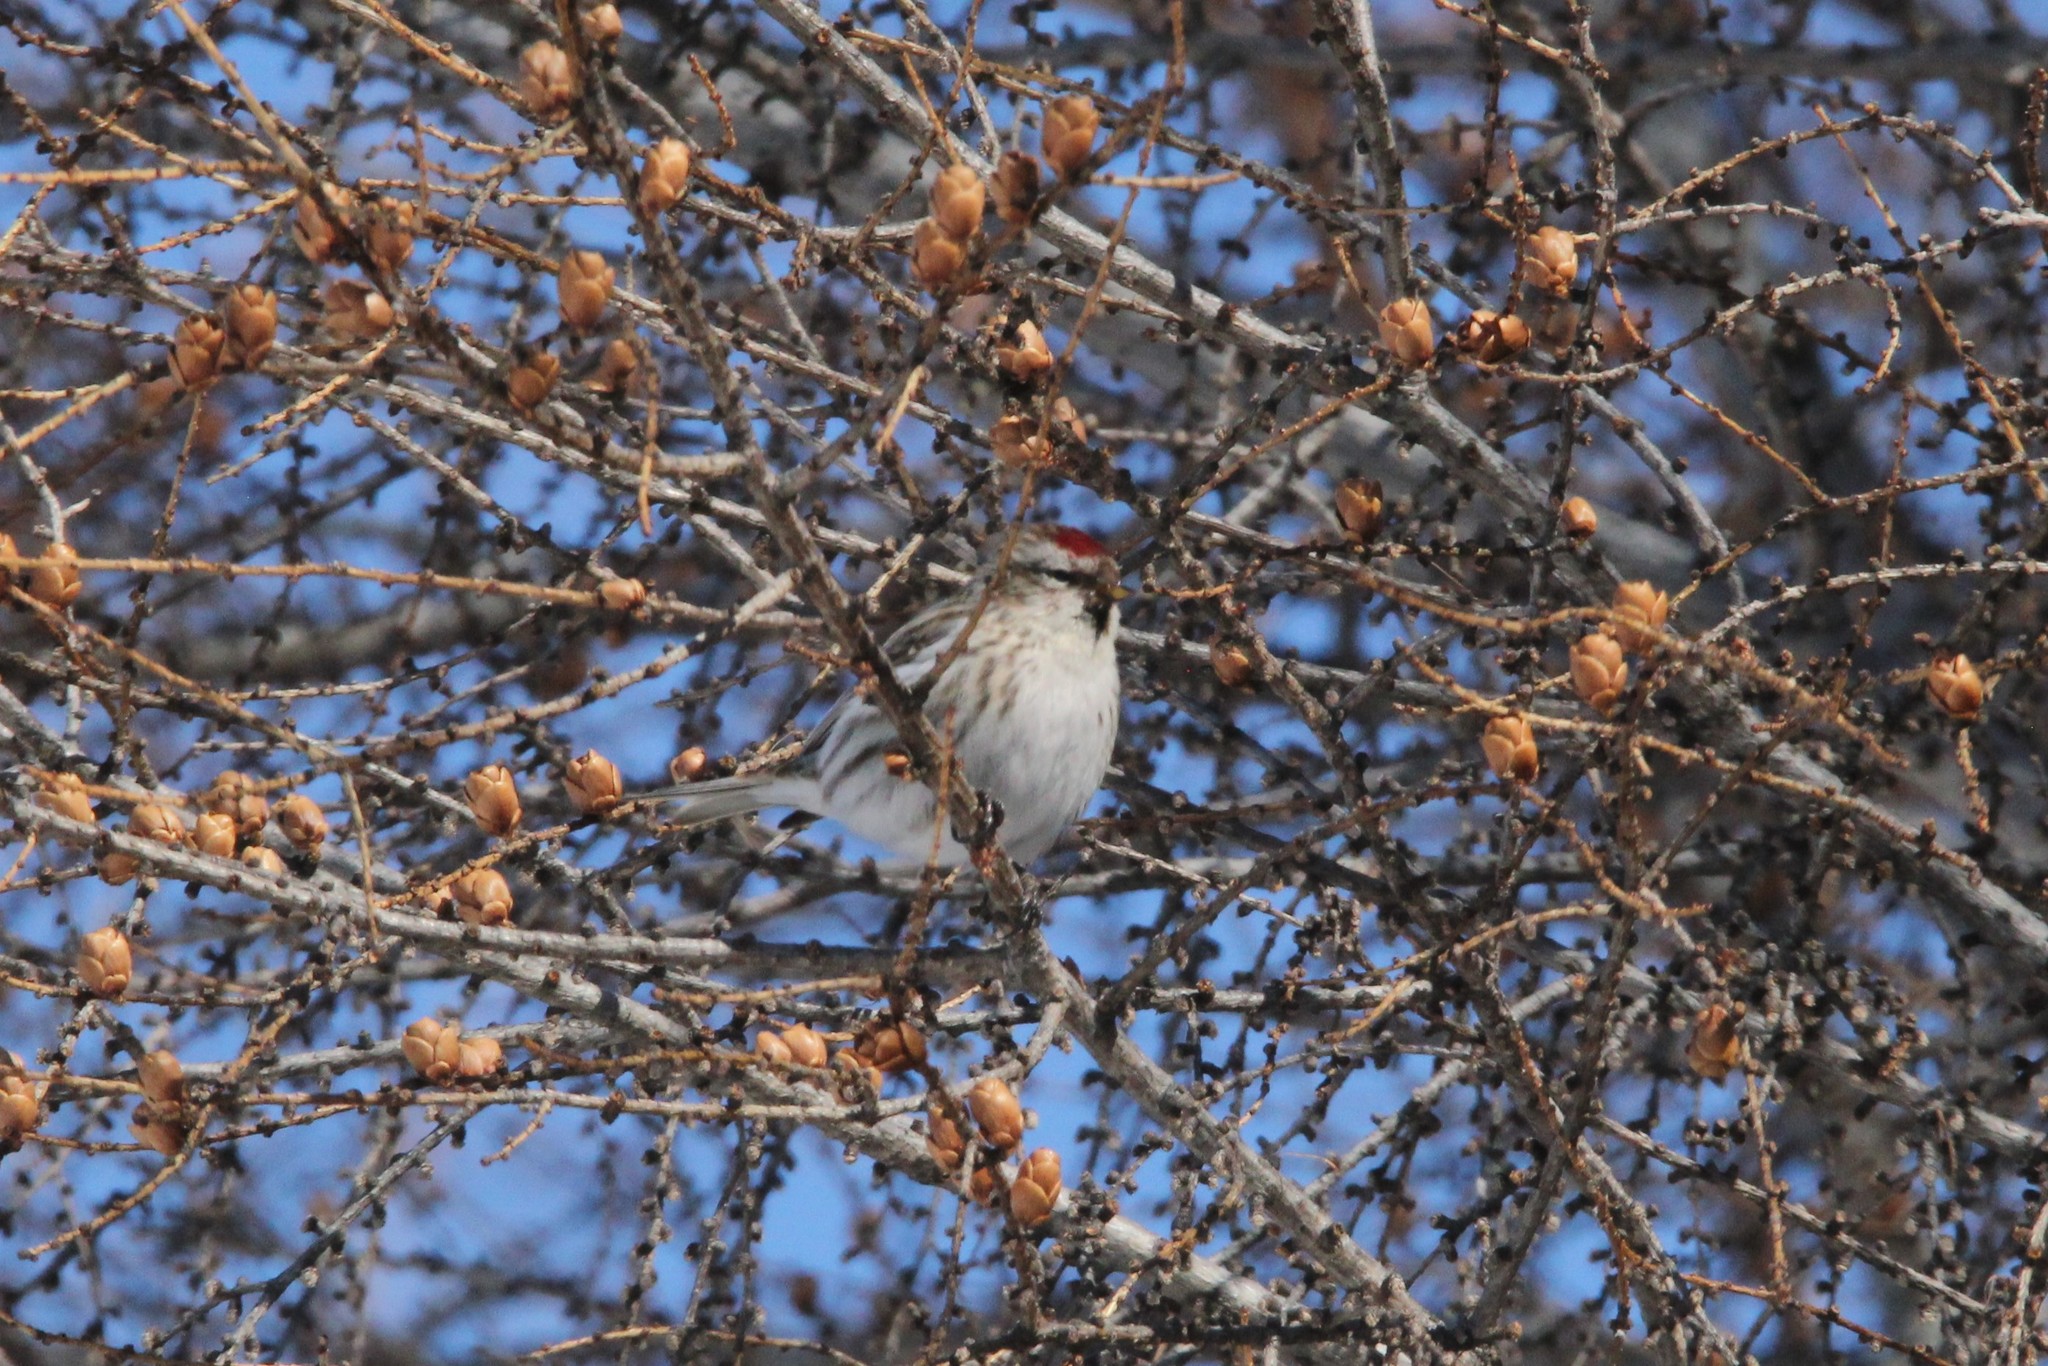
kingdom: Animalia
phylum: Chordata
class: Aves
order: Passeriformes
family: Fringillidae
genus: Acanthis
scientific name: Acanthis flammea
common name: Common redpoll
